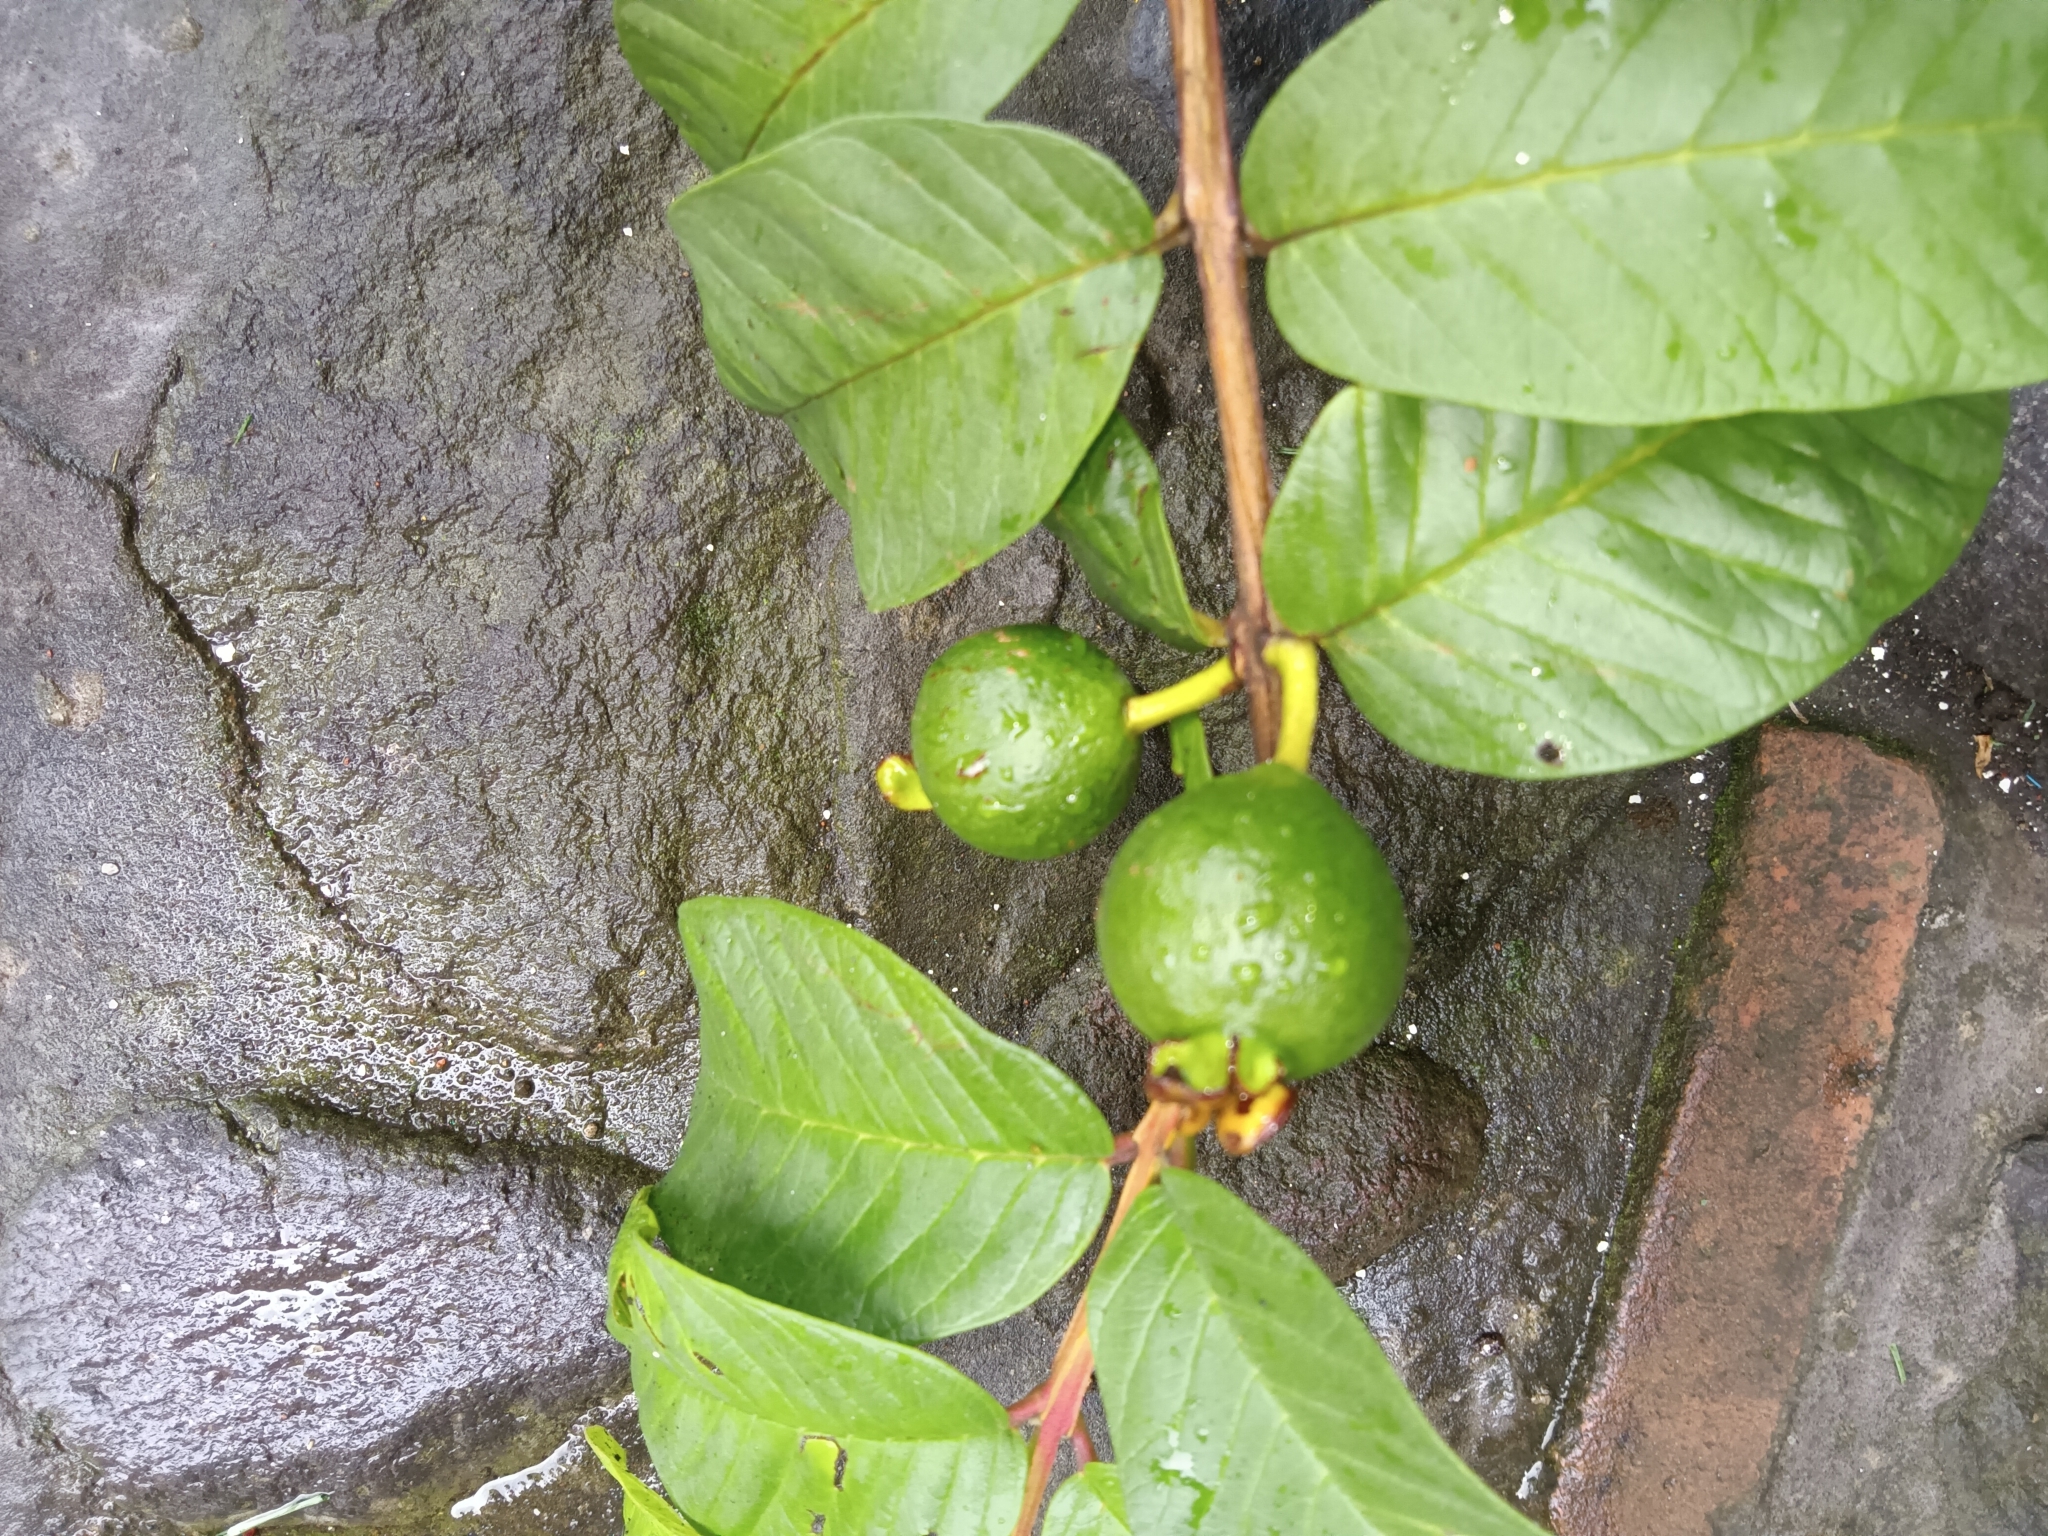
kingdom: Plantae
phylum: Tracheophyta
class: Magnoliopsida
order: Myrtales
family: Myrtaceae
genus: Psidium
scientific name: Psidium guajava
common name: Guava
